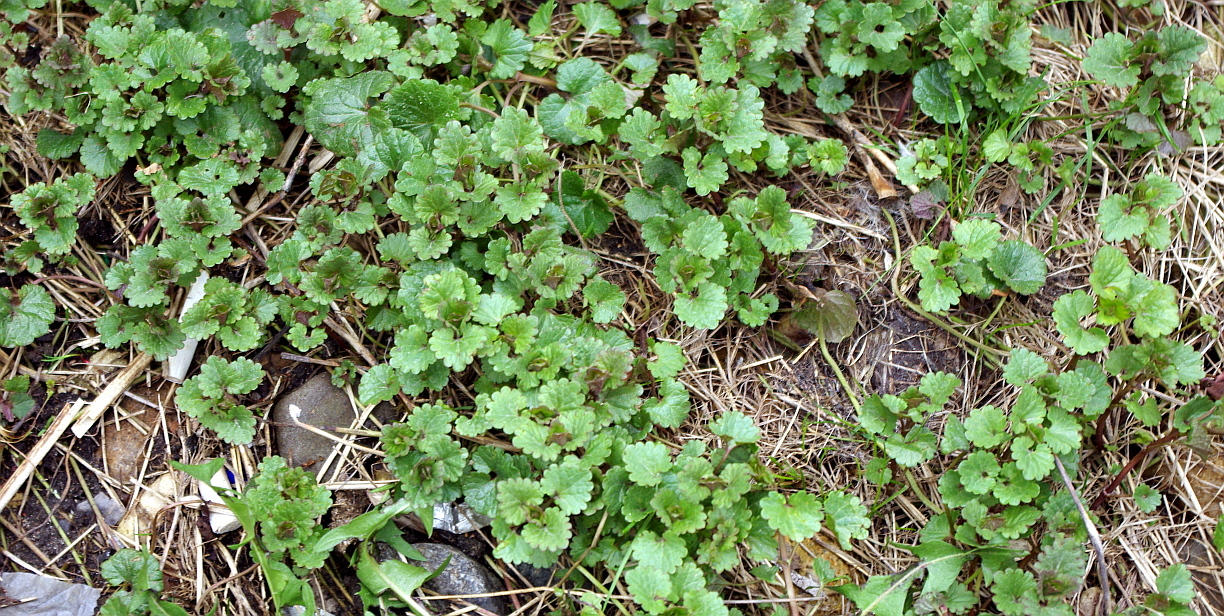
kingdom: Plantae
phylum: Tracheophyta
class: Magnoliopsida
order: Lamiales
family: Lamiaceae
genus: Glechoma
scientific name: Glechoma hederacea
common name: Ground ivy
